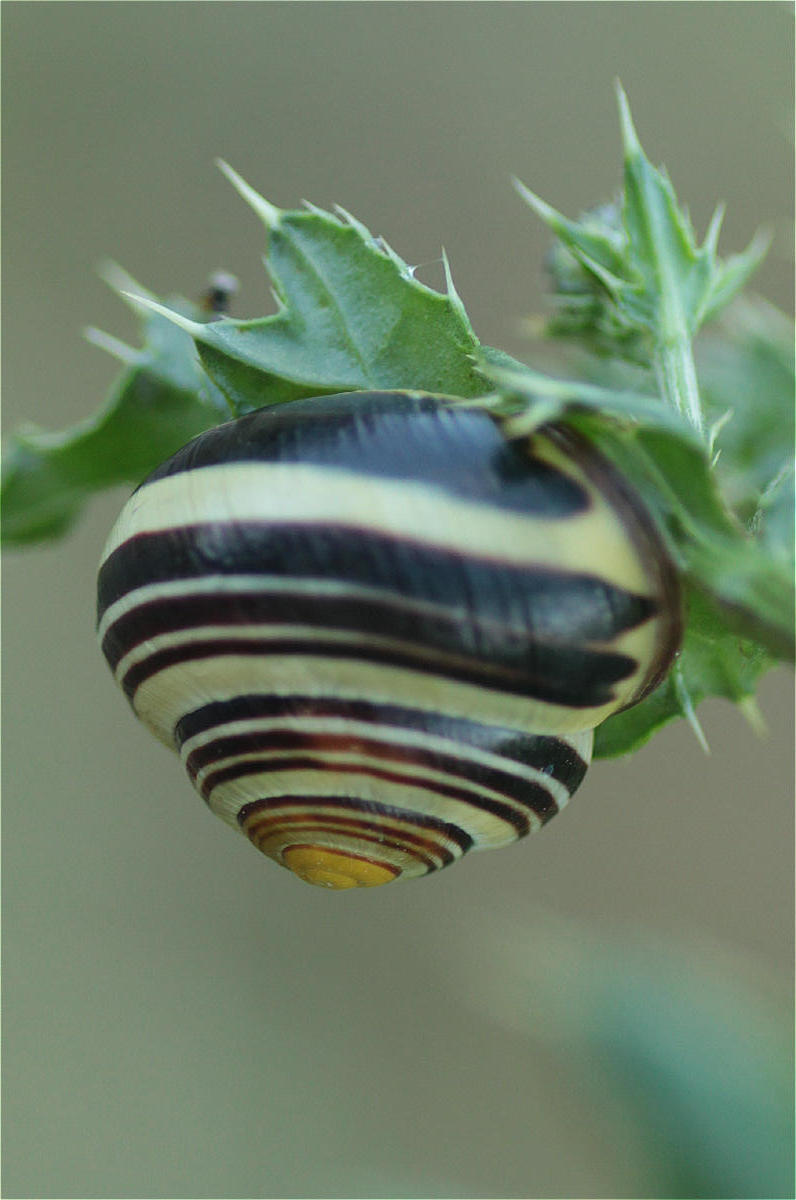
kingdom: Animalia
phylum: Mollusca
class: Gastropoda
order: Stylommatophora
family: Helicidae
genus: Cepaea
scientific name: Cepaea nemoralis
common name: Grovesnail
